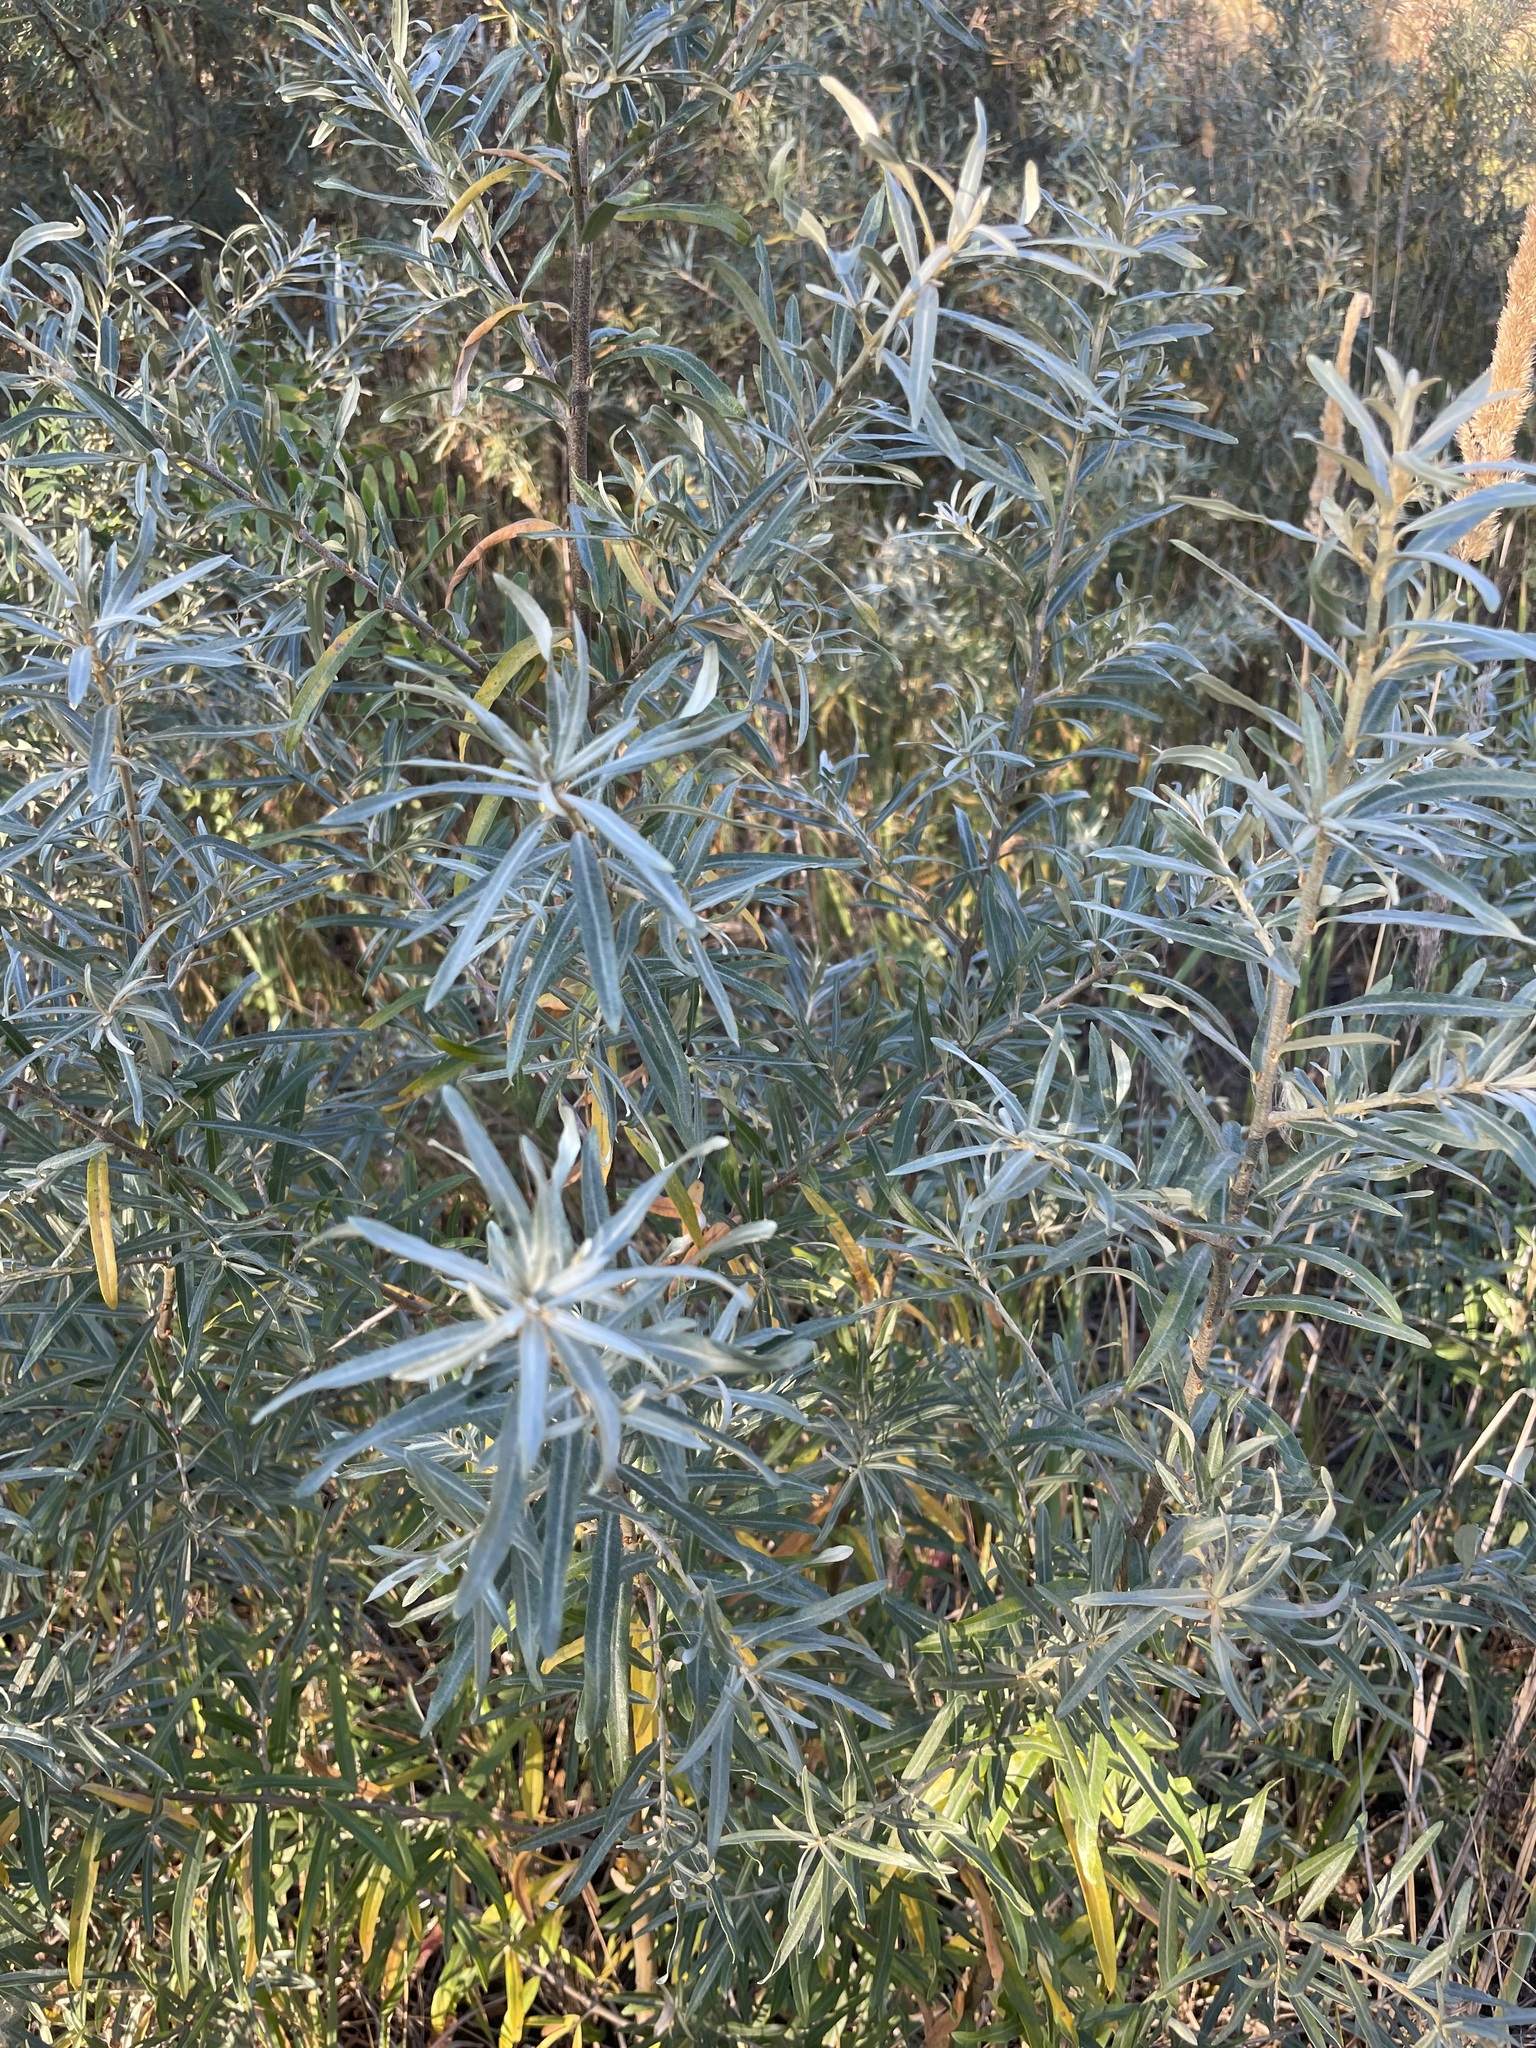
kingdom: Plantae
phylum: Tracheophyta
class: Magnoliopsida
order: Rosales
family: Elaeagnaceae
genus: Hippophae
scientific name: Hippophae rhamnoides
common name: Sea-buckthorn
